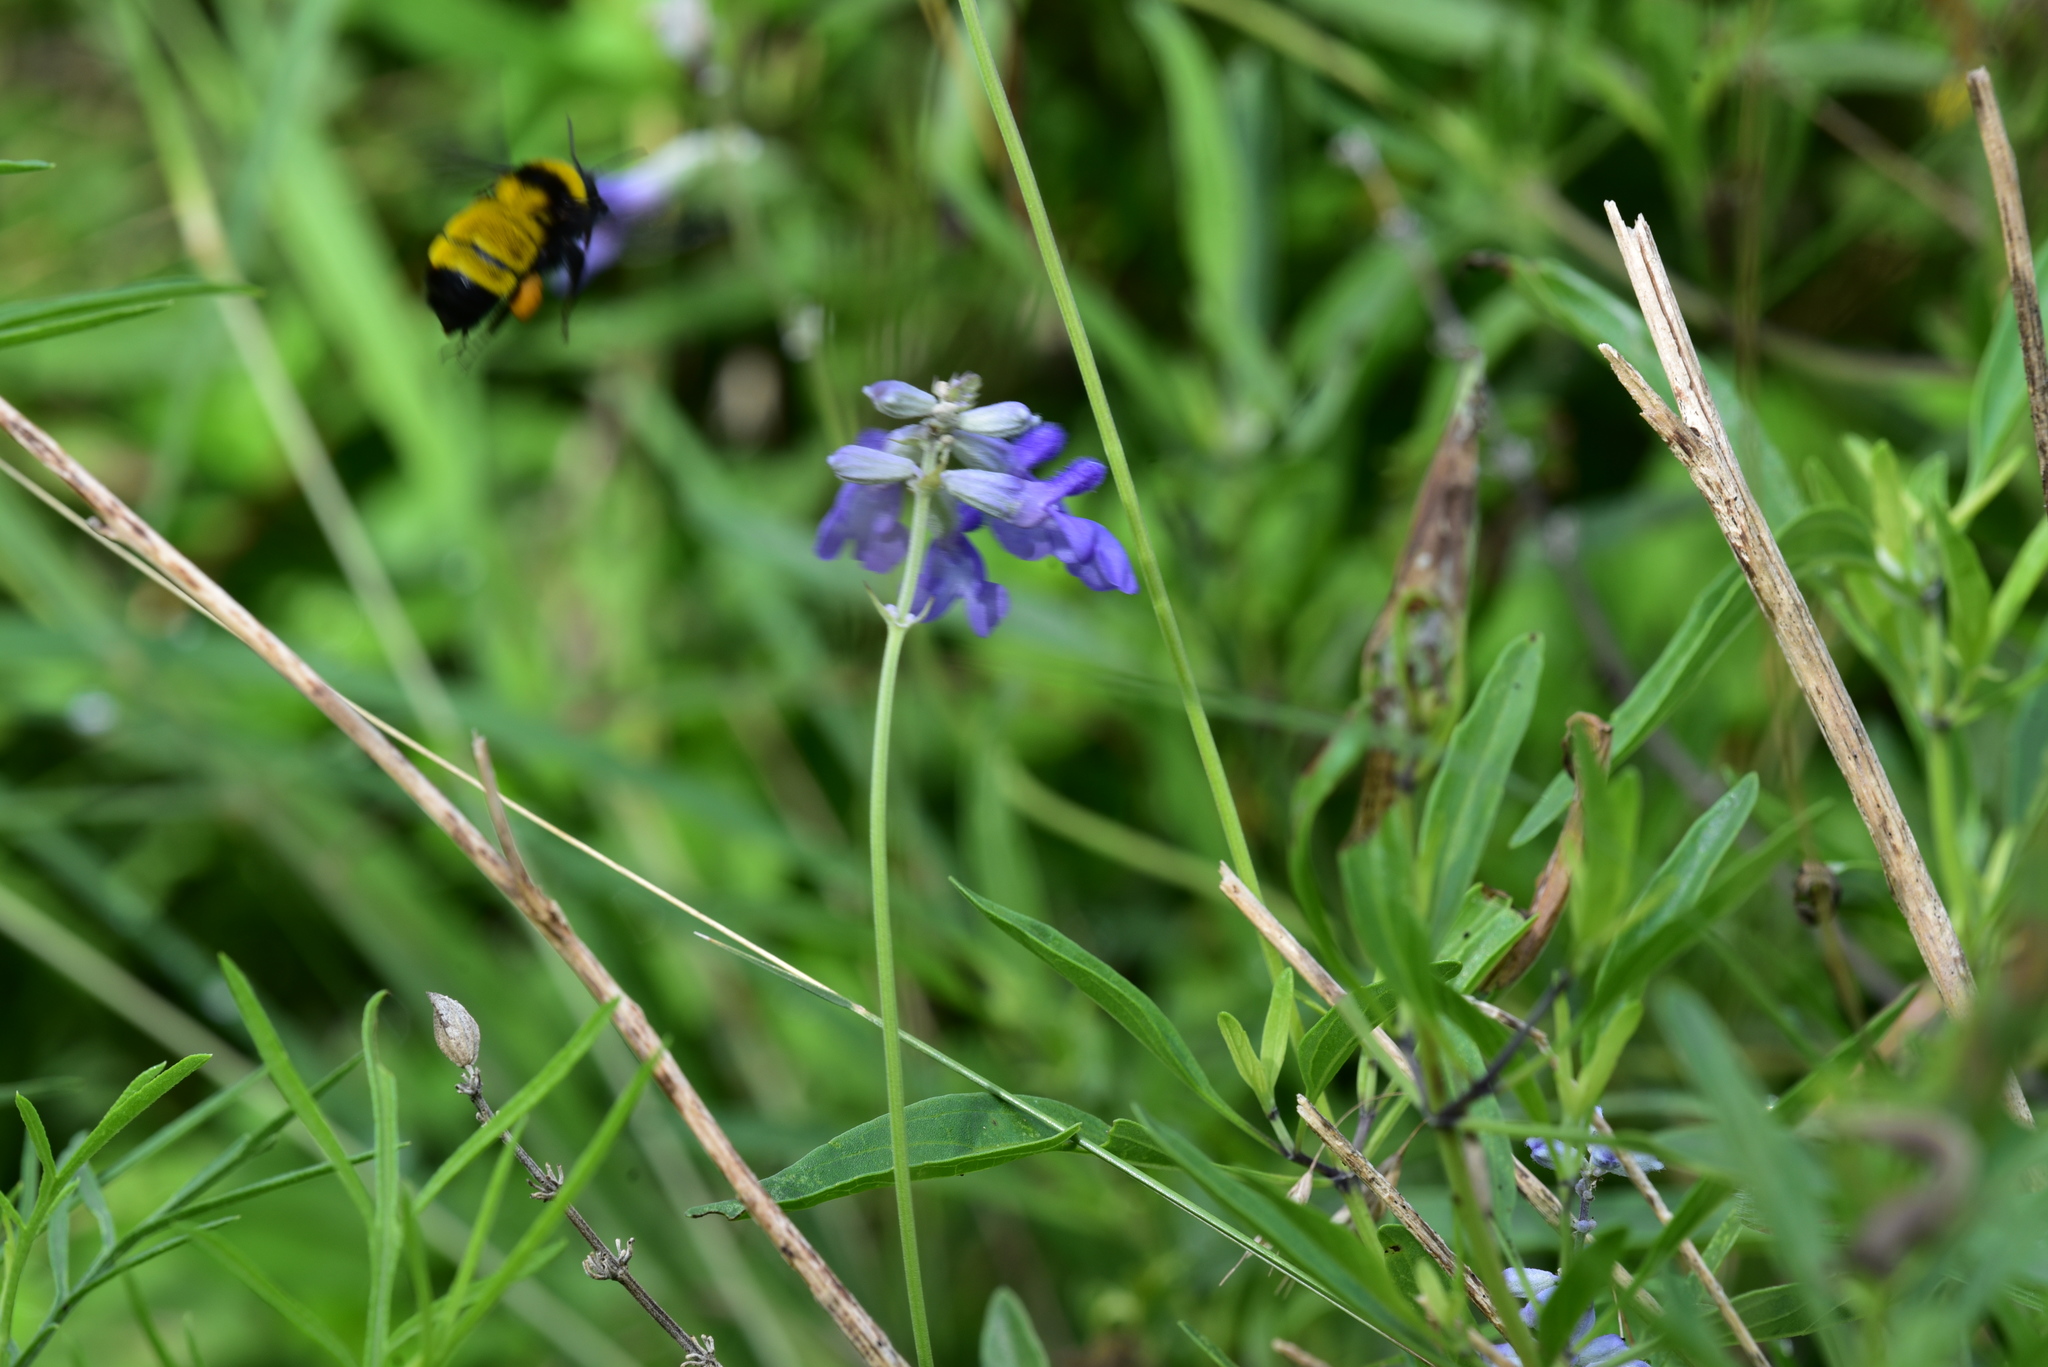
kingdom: Animalia
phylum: Arthropoda
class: Insecta
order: Hymenoptera
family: Apidae
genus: Bombus
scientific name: Bombus sonorus
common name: Sonoran bumble bee
